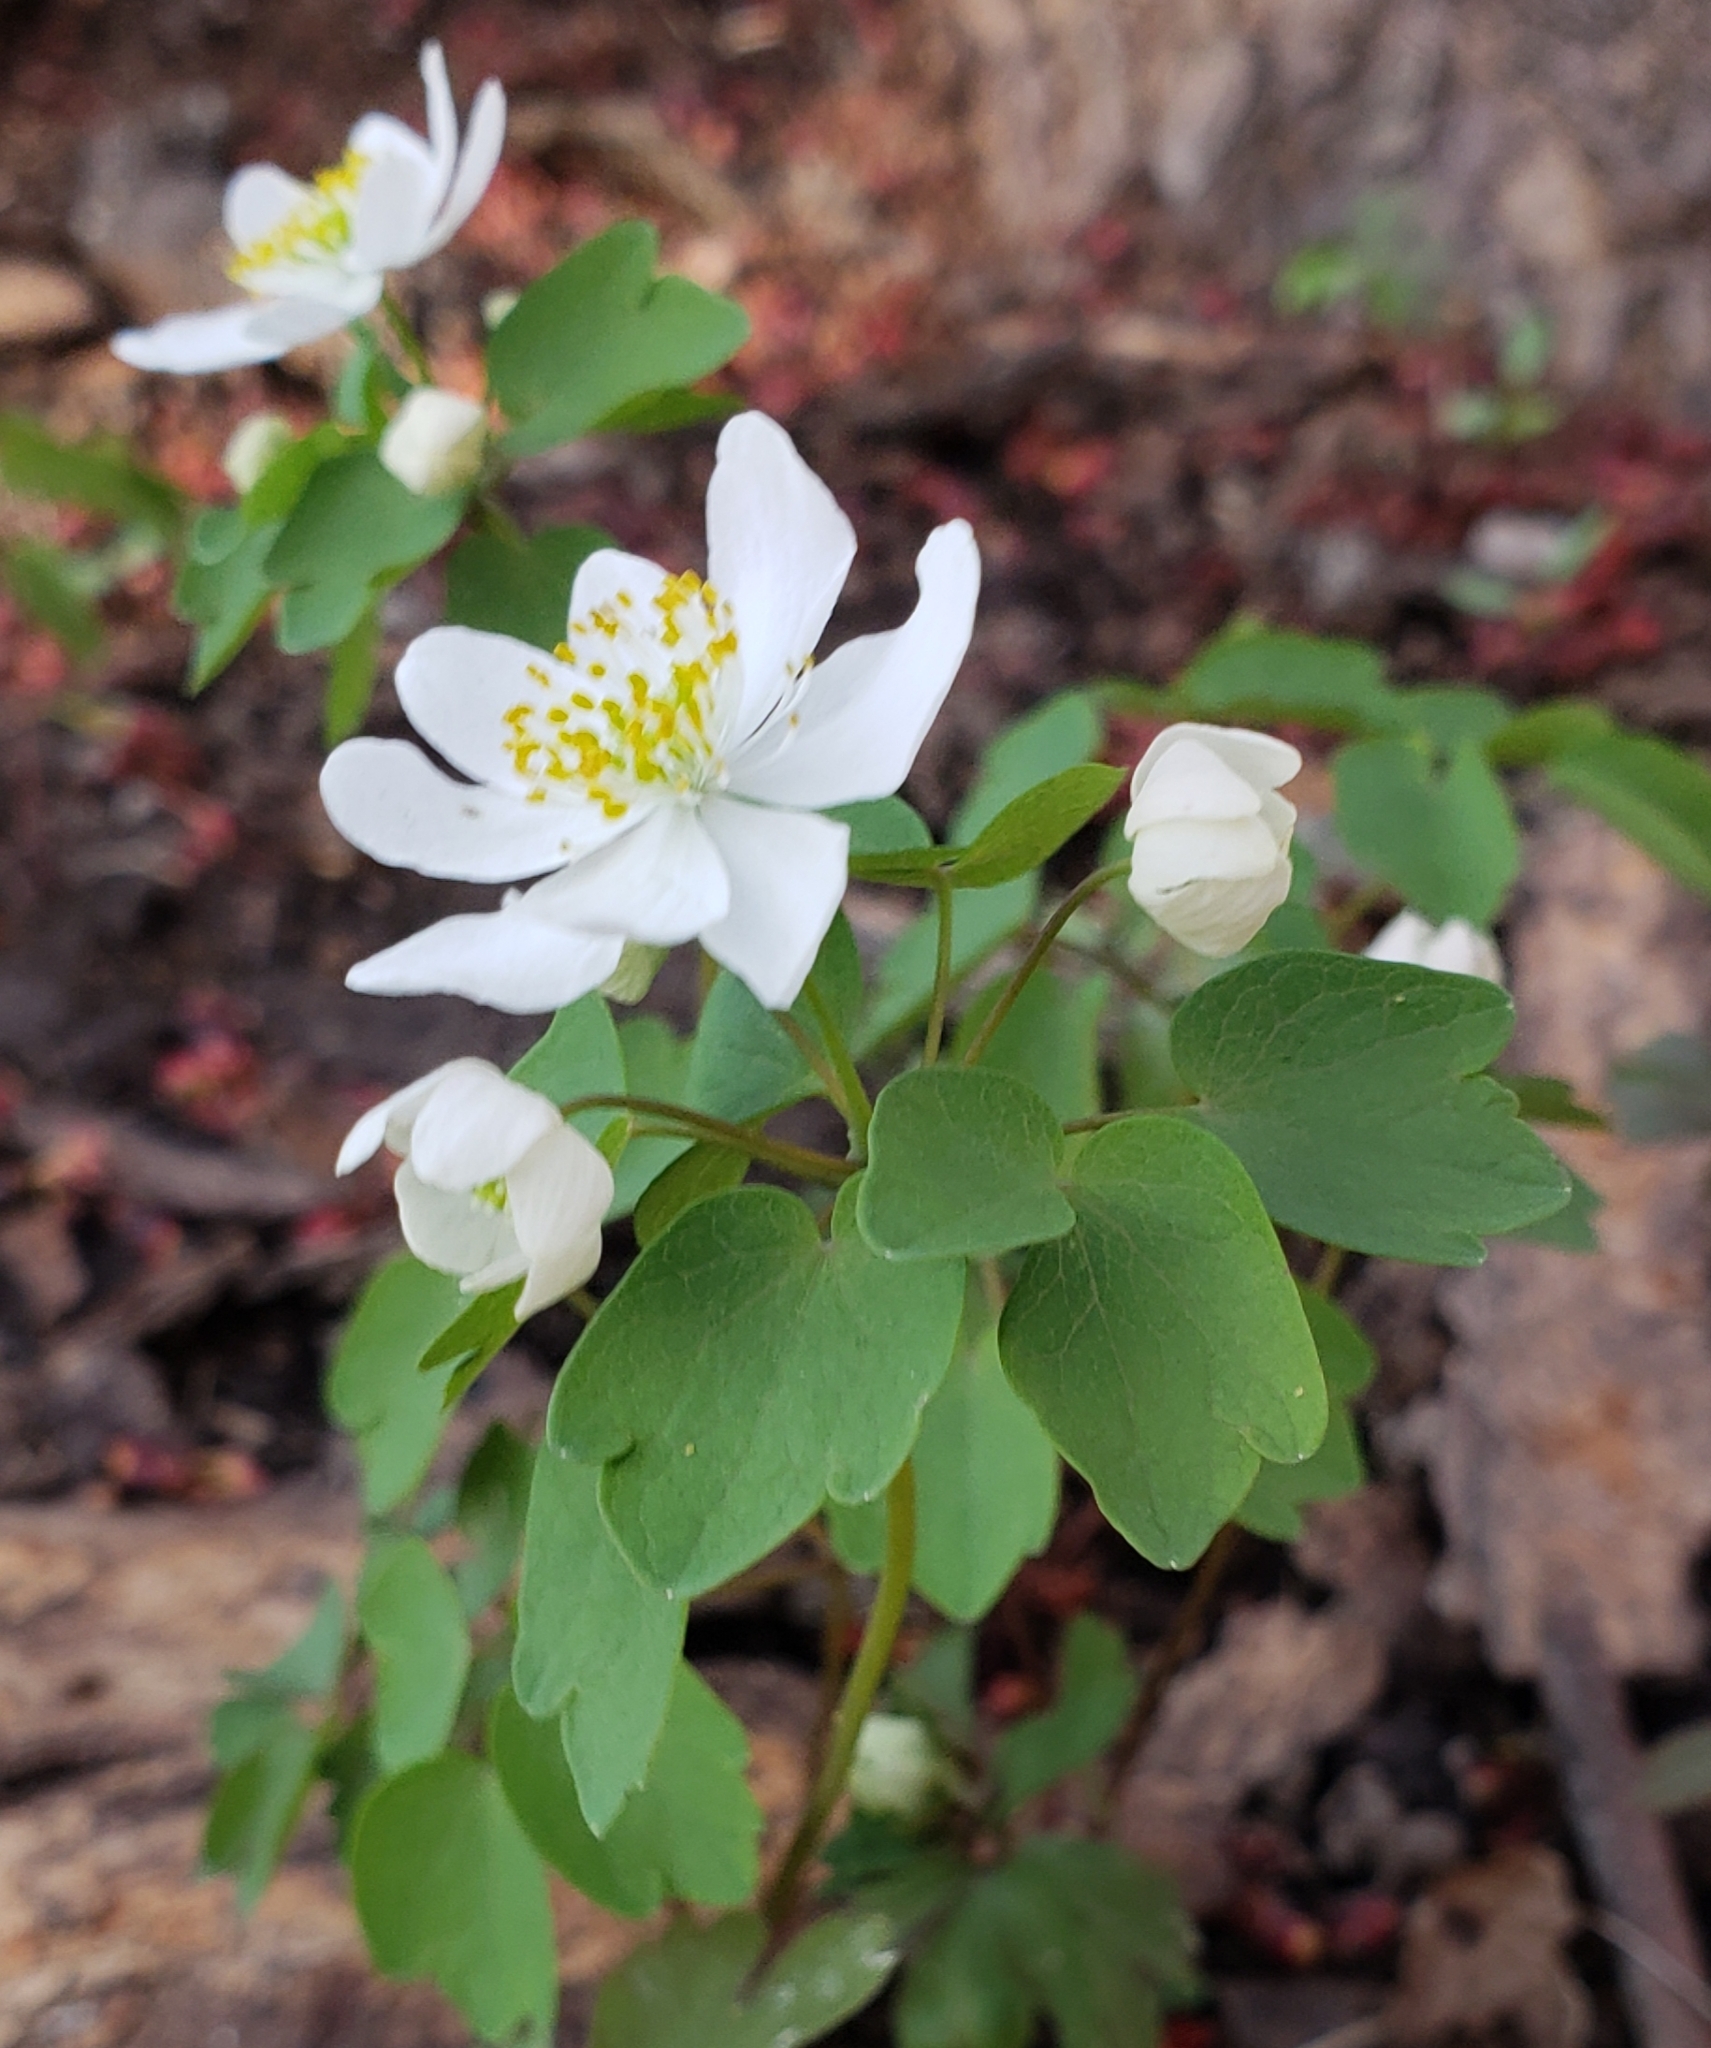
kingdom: Plantae
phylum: Tracheophyta
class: Magnoliopsida
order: Ranunculales
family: Ranunculaceae
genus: Thalictrum
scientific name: Thalictrum thalictroides
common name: Rue-anemone
